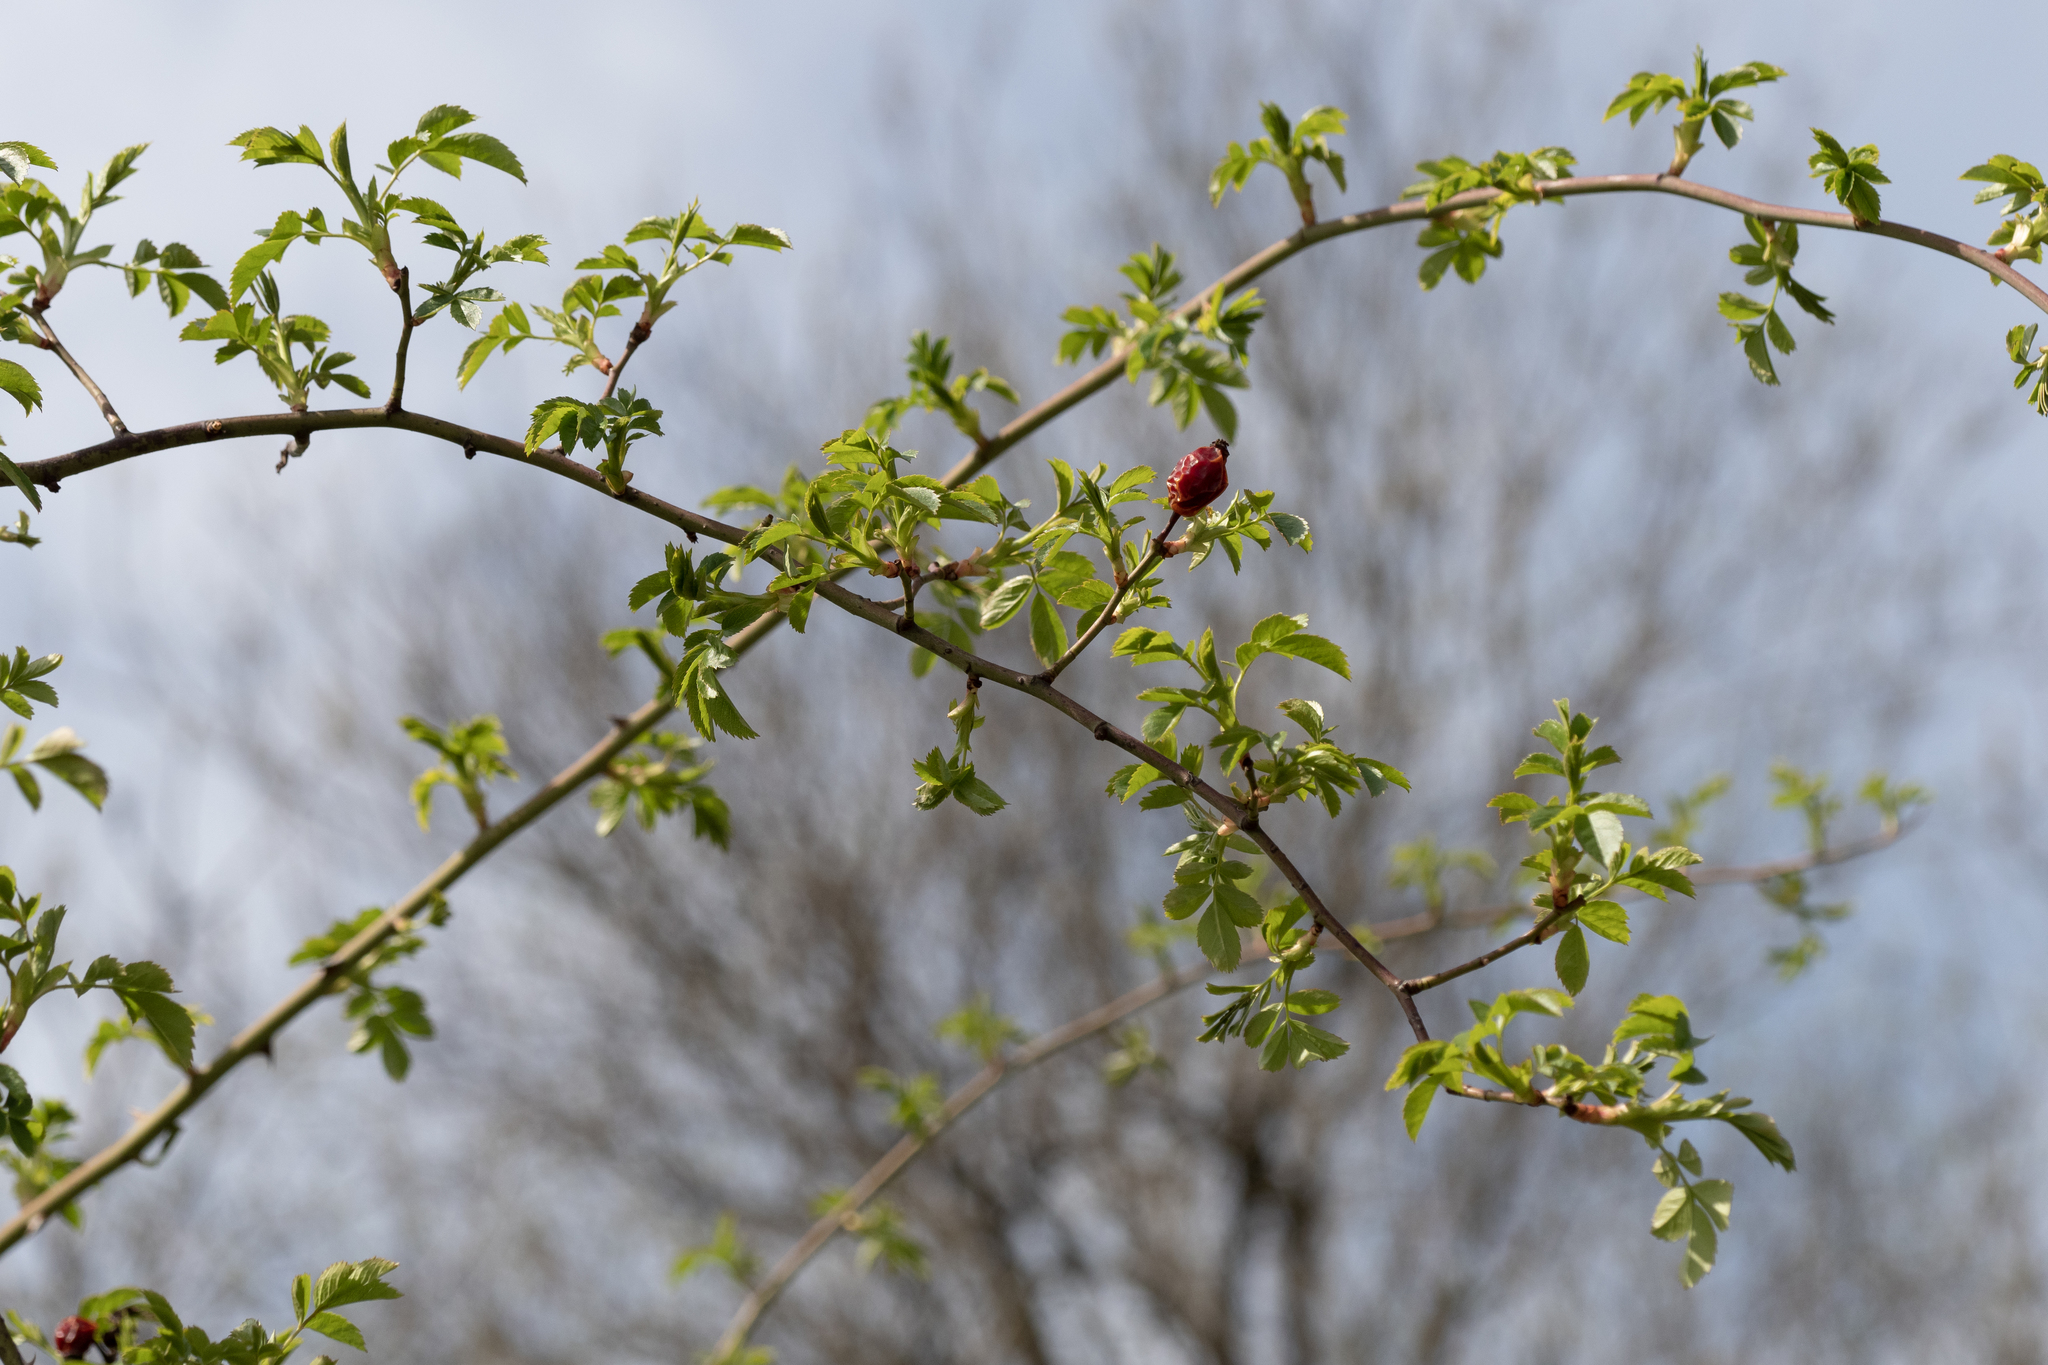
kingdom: Plantae
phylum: Tracheophyta
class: Magnoliopsida
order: Rosales
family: Rosaceae
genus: Rosa
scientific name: Rosa canina
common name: Dog rose
